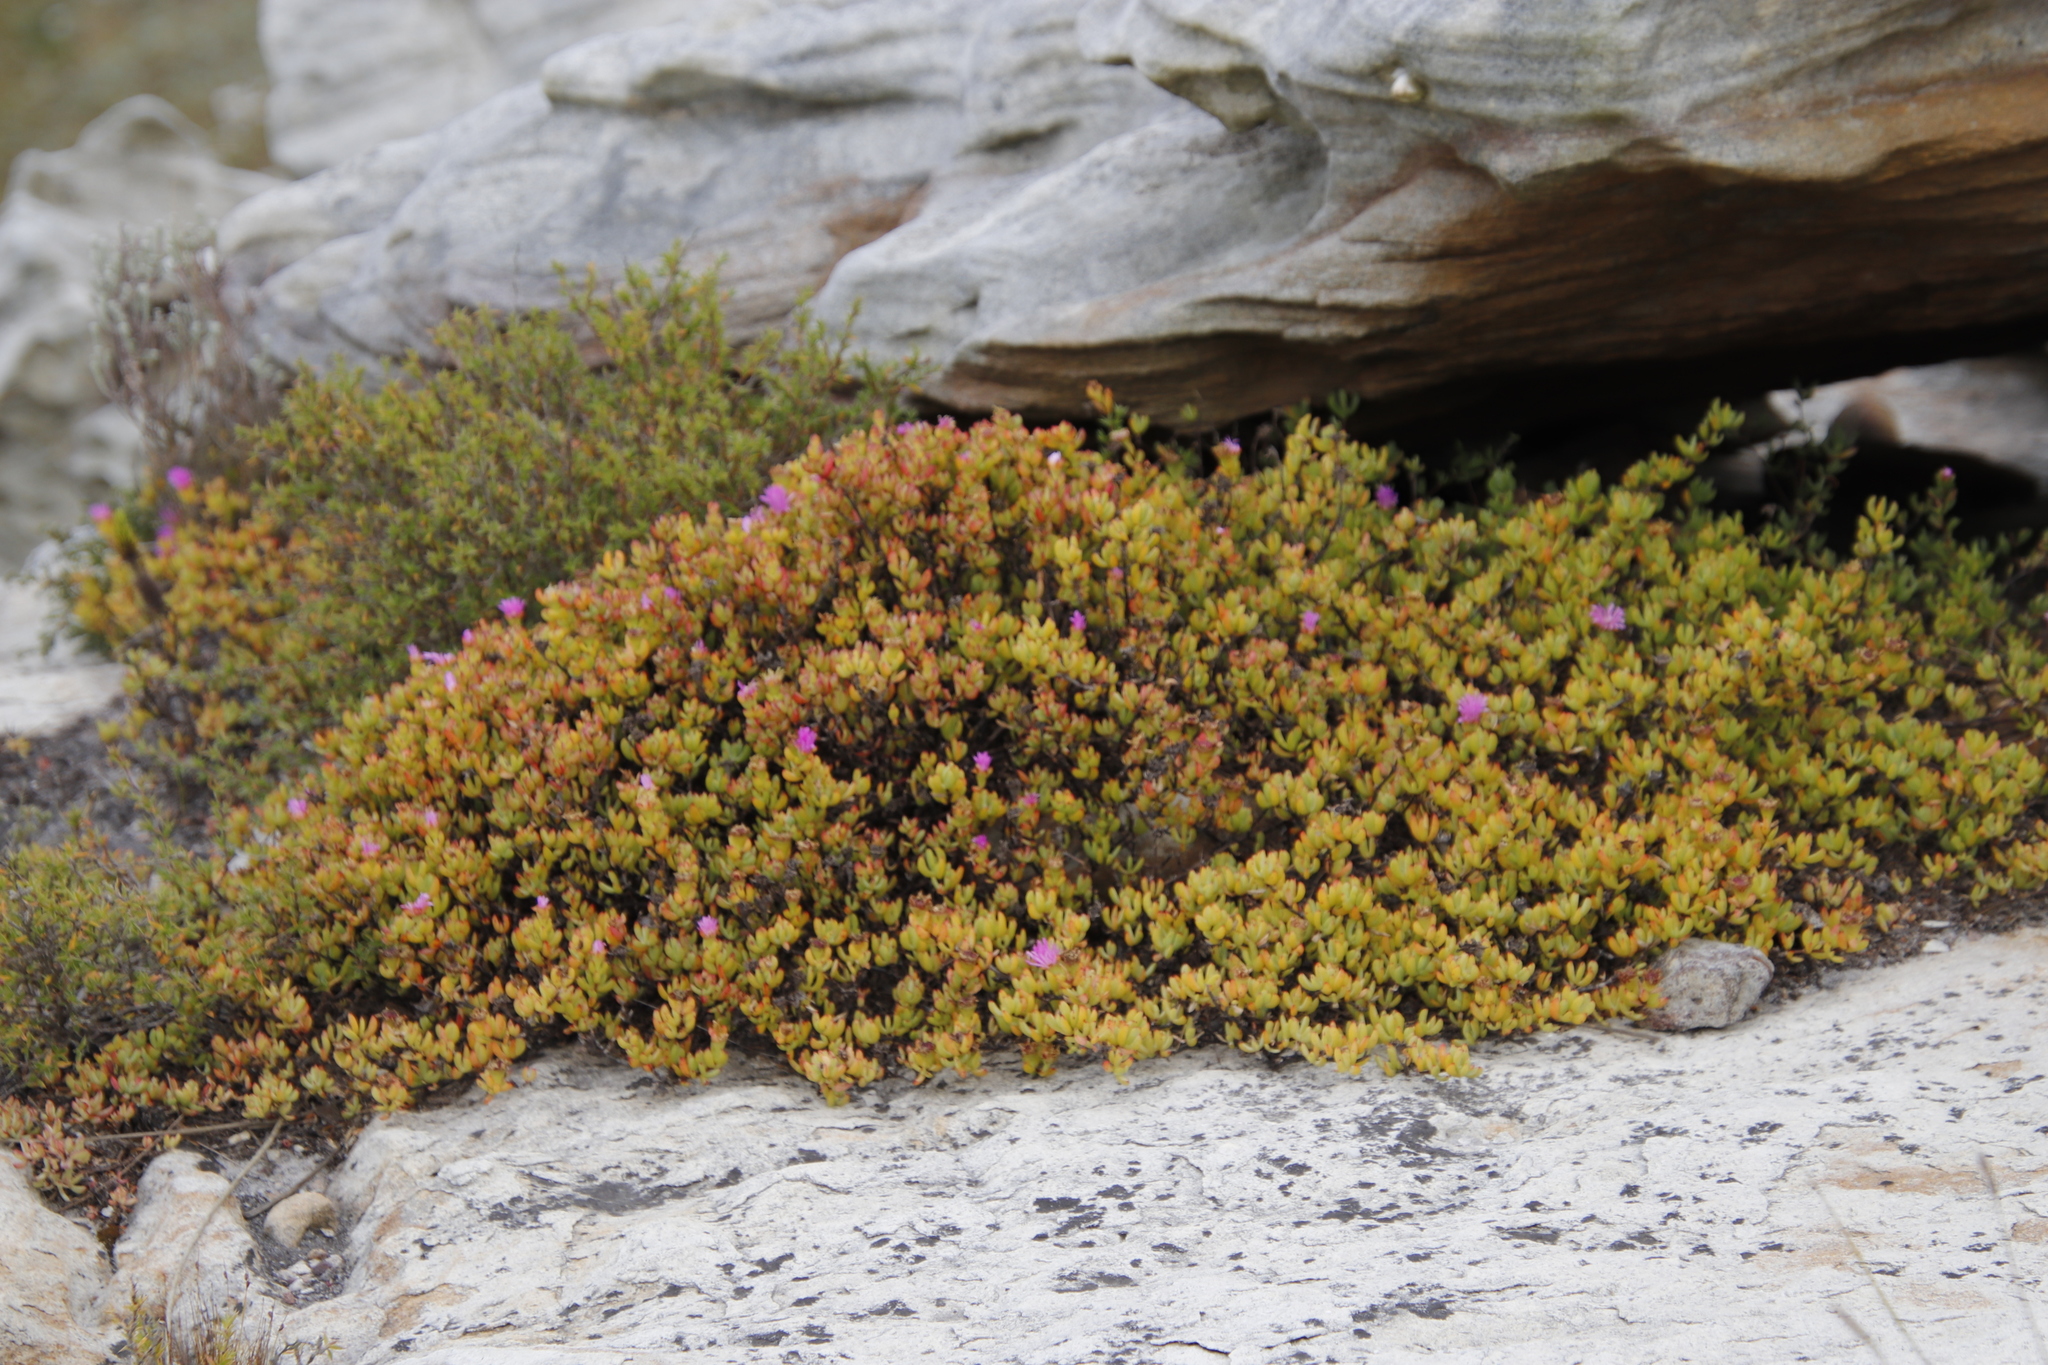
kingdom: Plantae
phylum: Tracheophyta
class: Magnoliopsida
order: Caryophyllales
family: Aizoaceae
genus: Oscularia
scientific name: Oscularia falciformis
